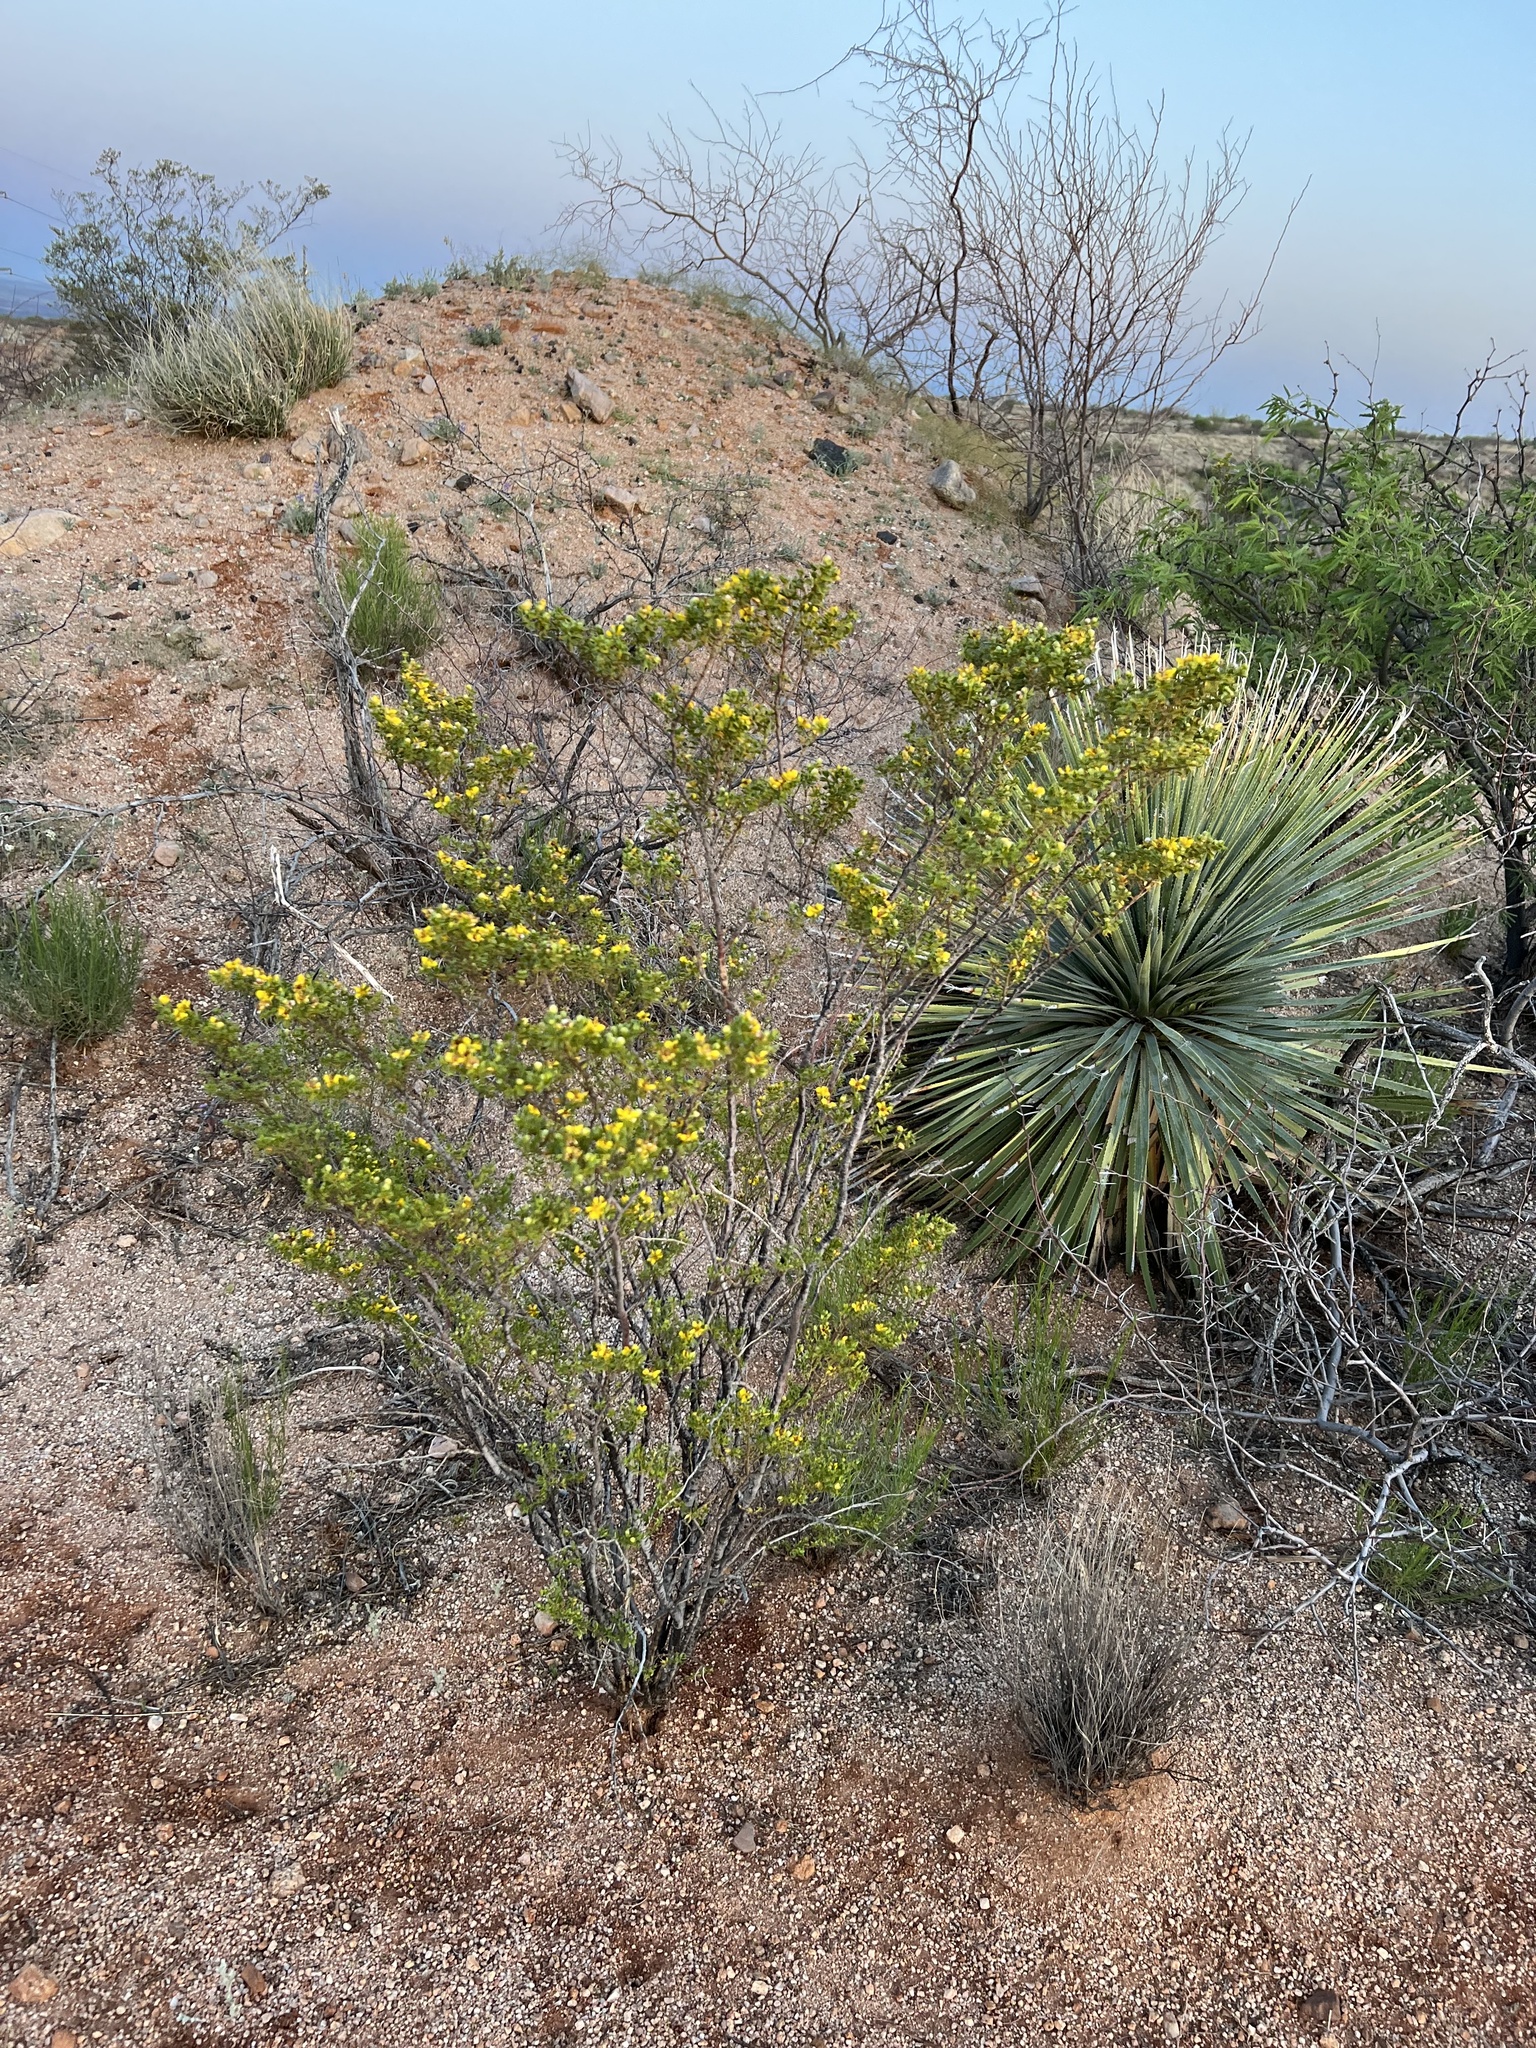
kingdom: Plantae
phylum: Tracheophyta
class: Magnoliopsida
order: Zygophyllales
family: Zygophyllaceae
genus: Larrea
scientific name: Larrea tridentata
